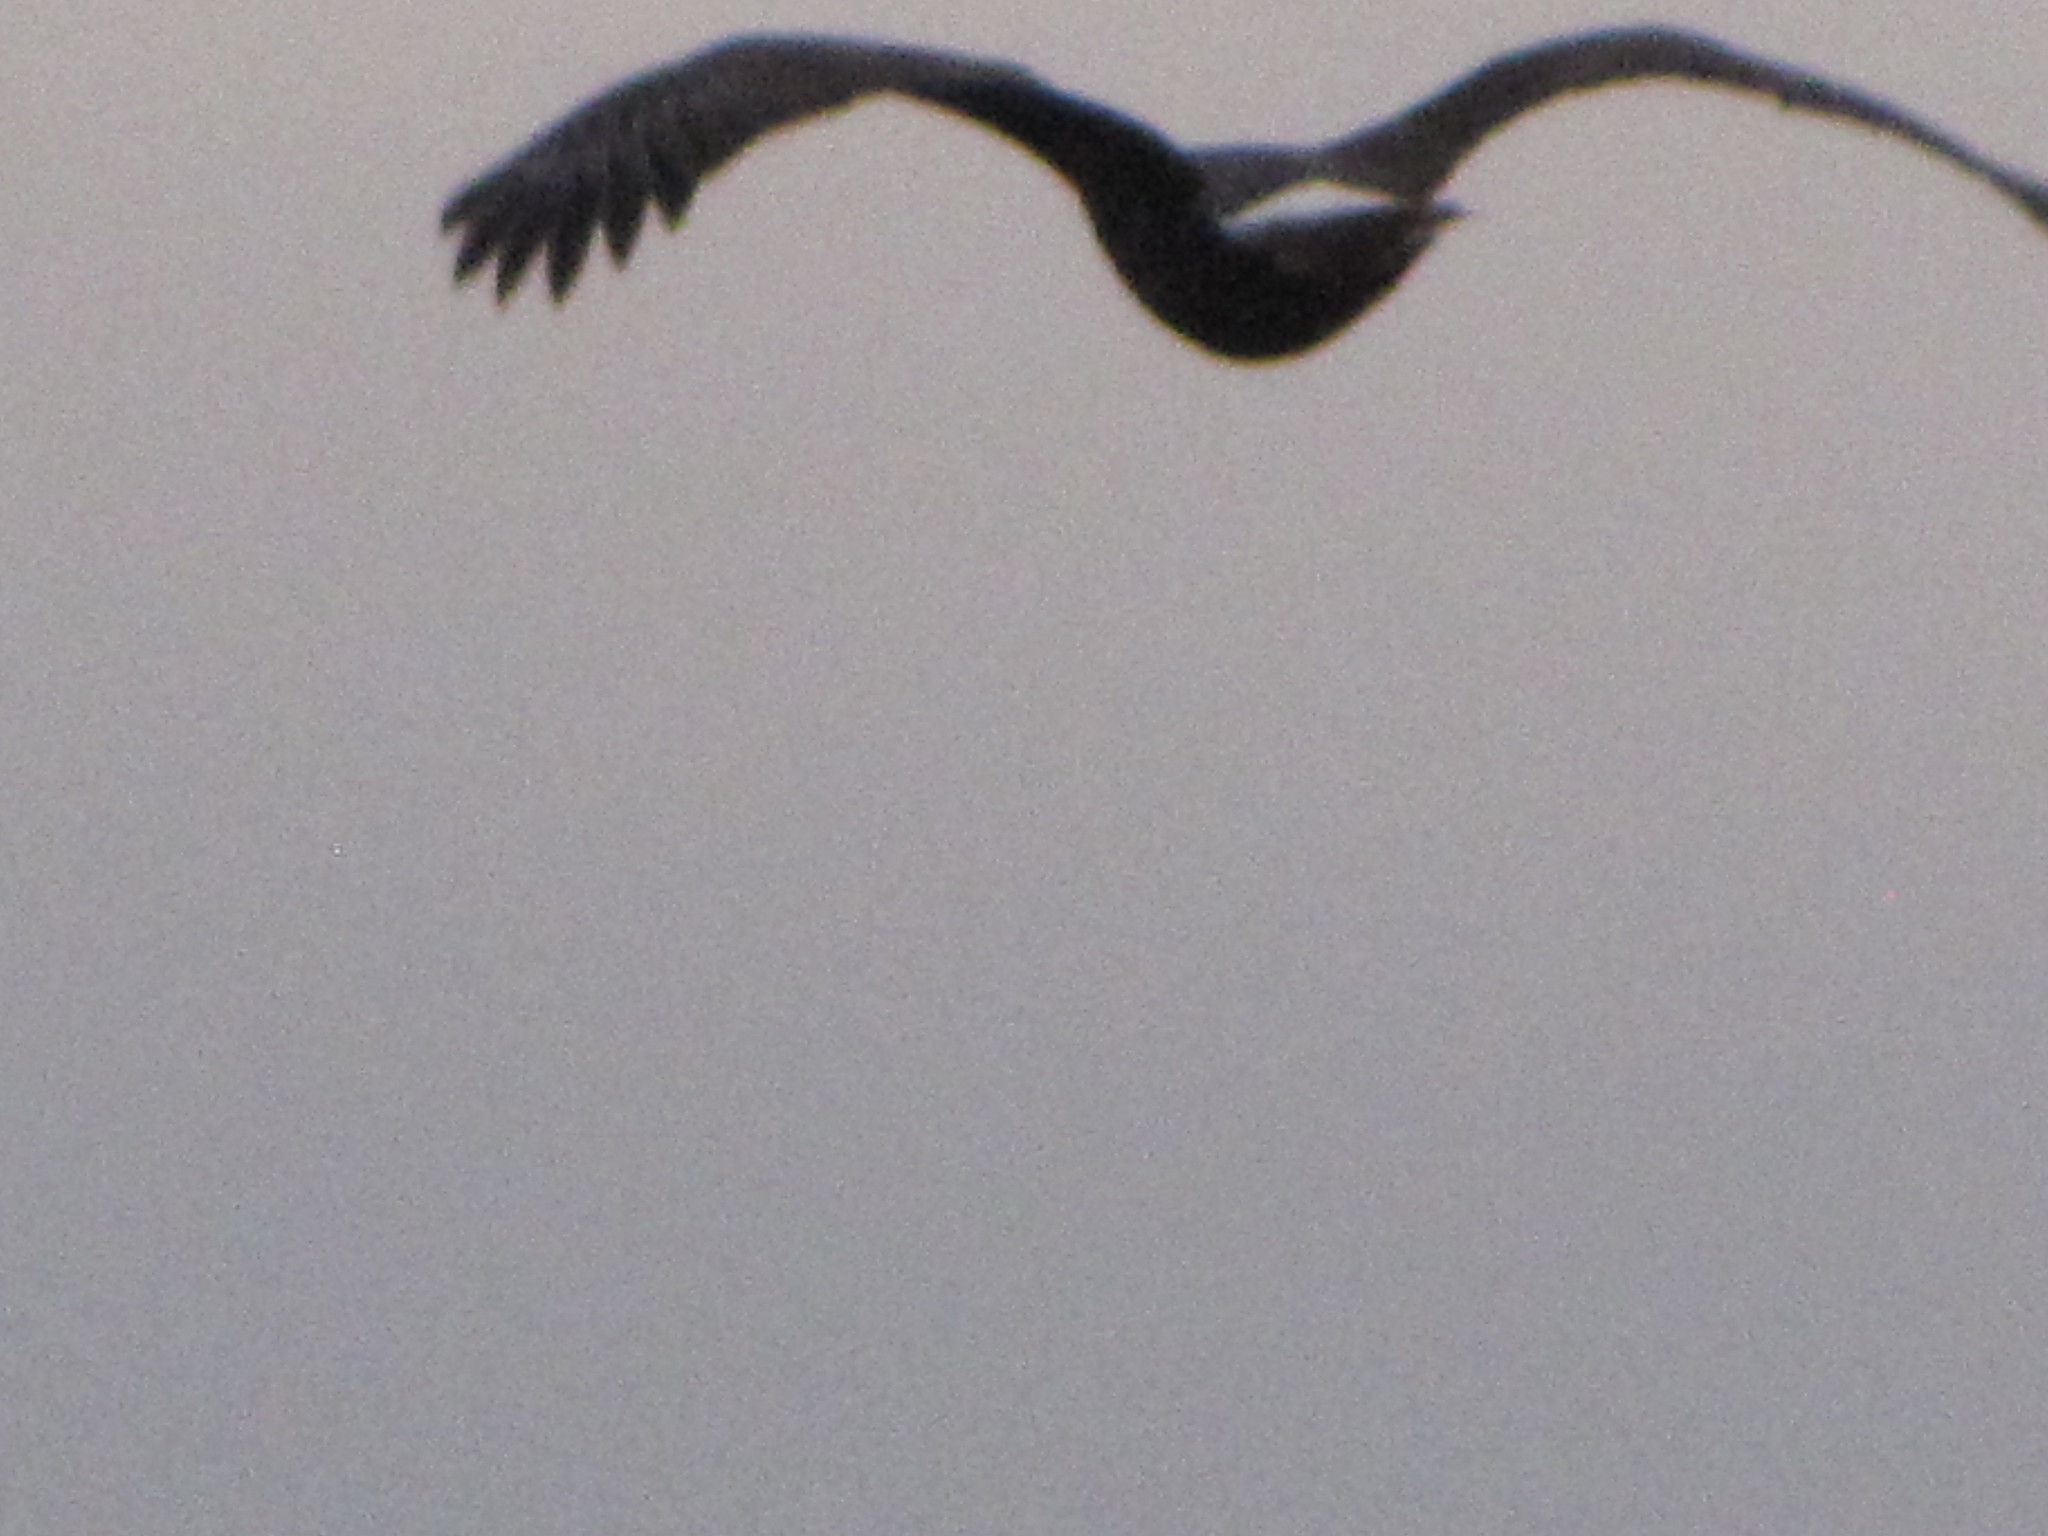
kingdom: Animalia
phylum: Chordata
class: Aves
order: Accipitriformes
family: Accipitridae
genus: Haliaeetus
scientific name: Haliaeetus leucocephalus
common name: Bald eagle
